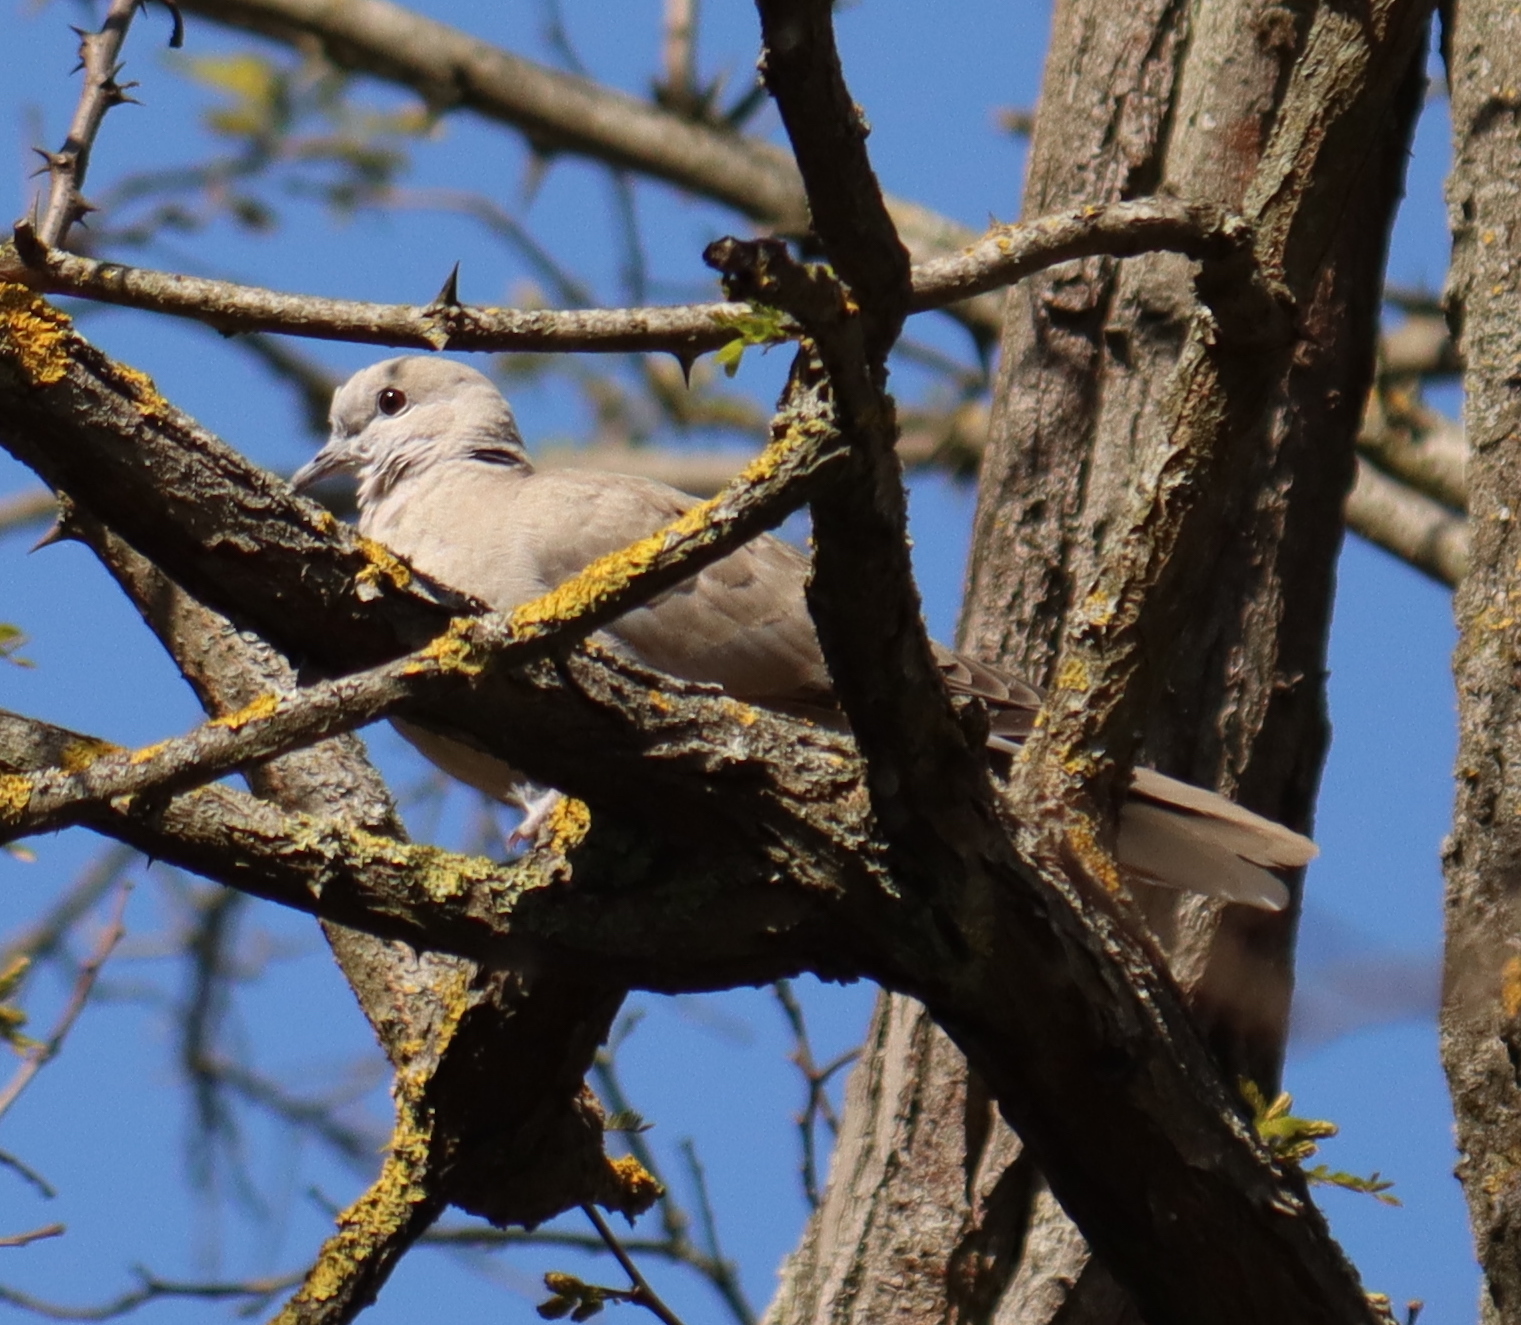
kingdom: Animalia
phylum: Chordata
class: Aves
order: Columbiformes
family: Columbidae
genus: Streptopelia
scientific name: Streptopelia decaocto
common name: Eurasian collared dove
